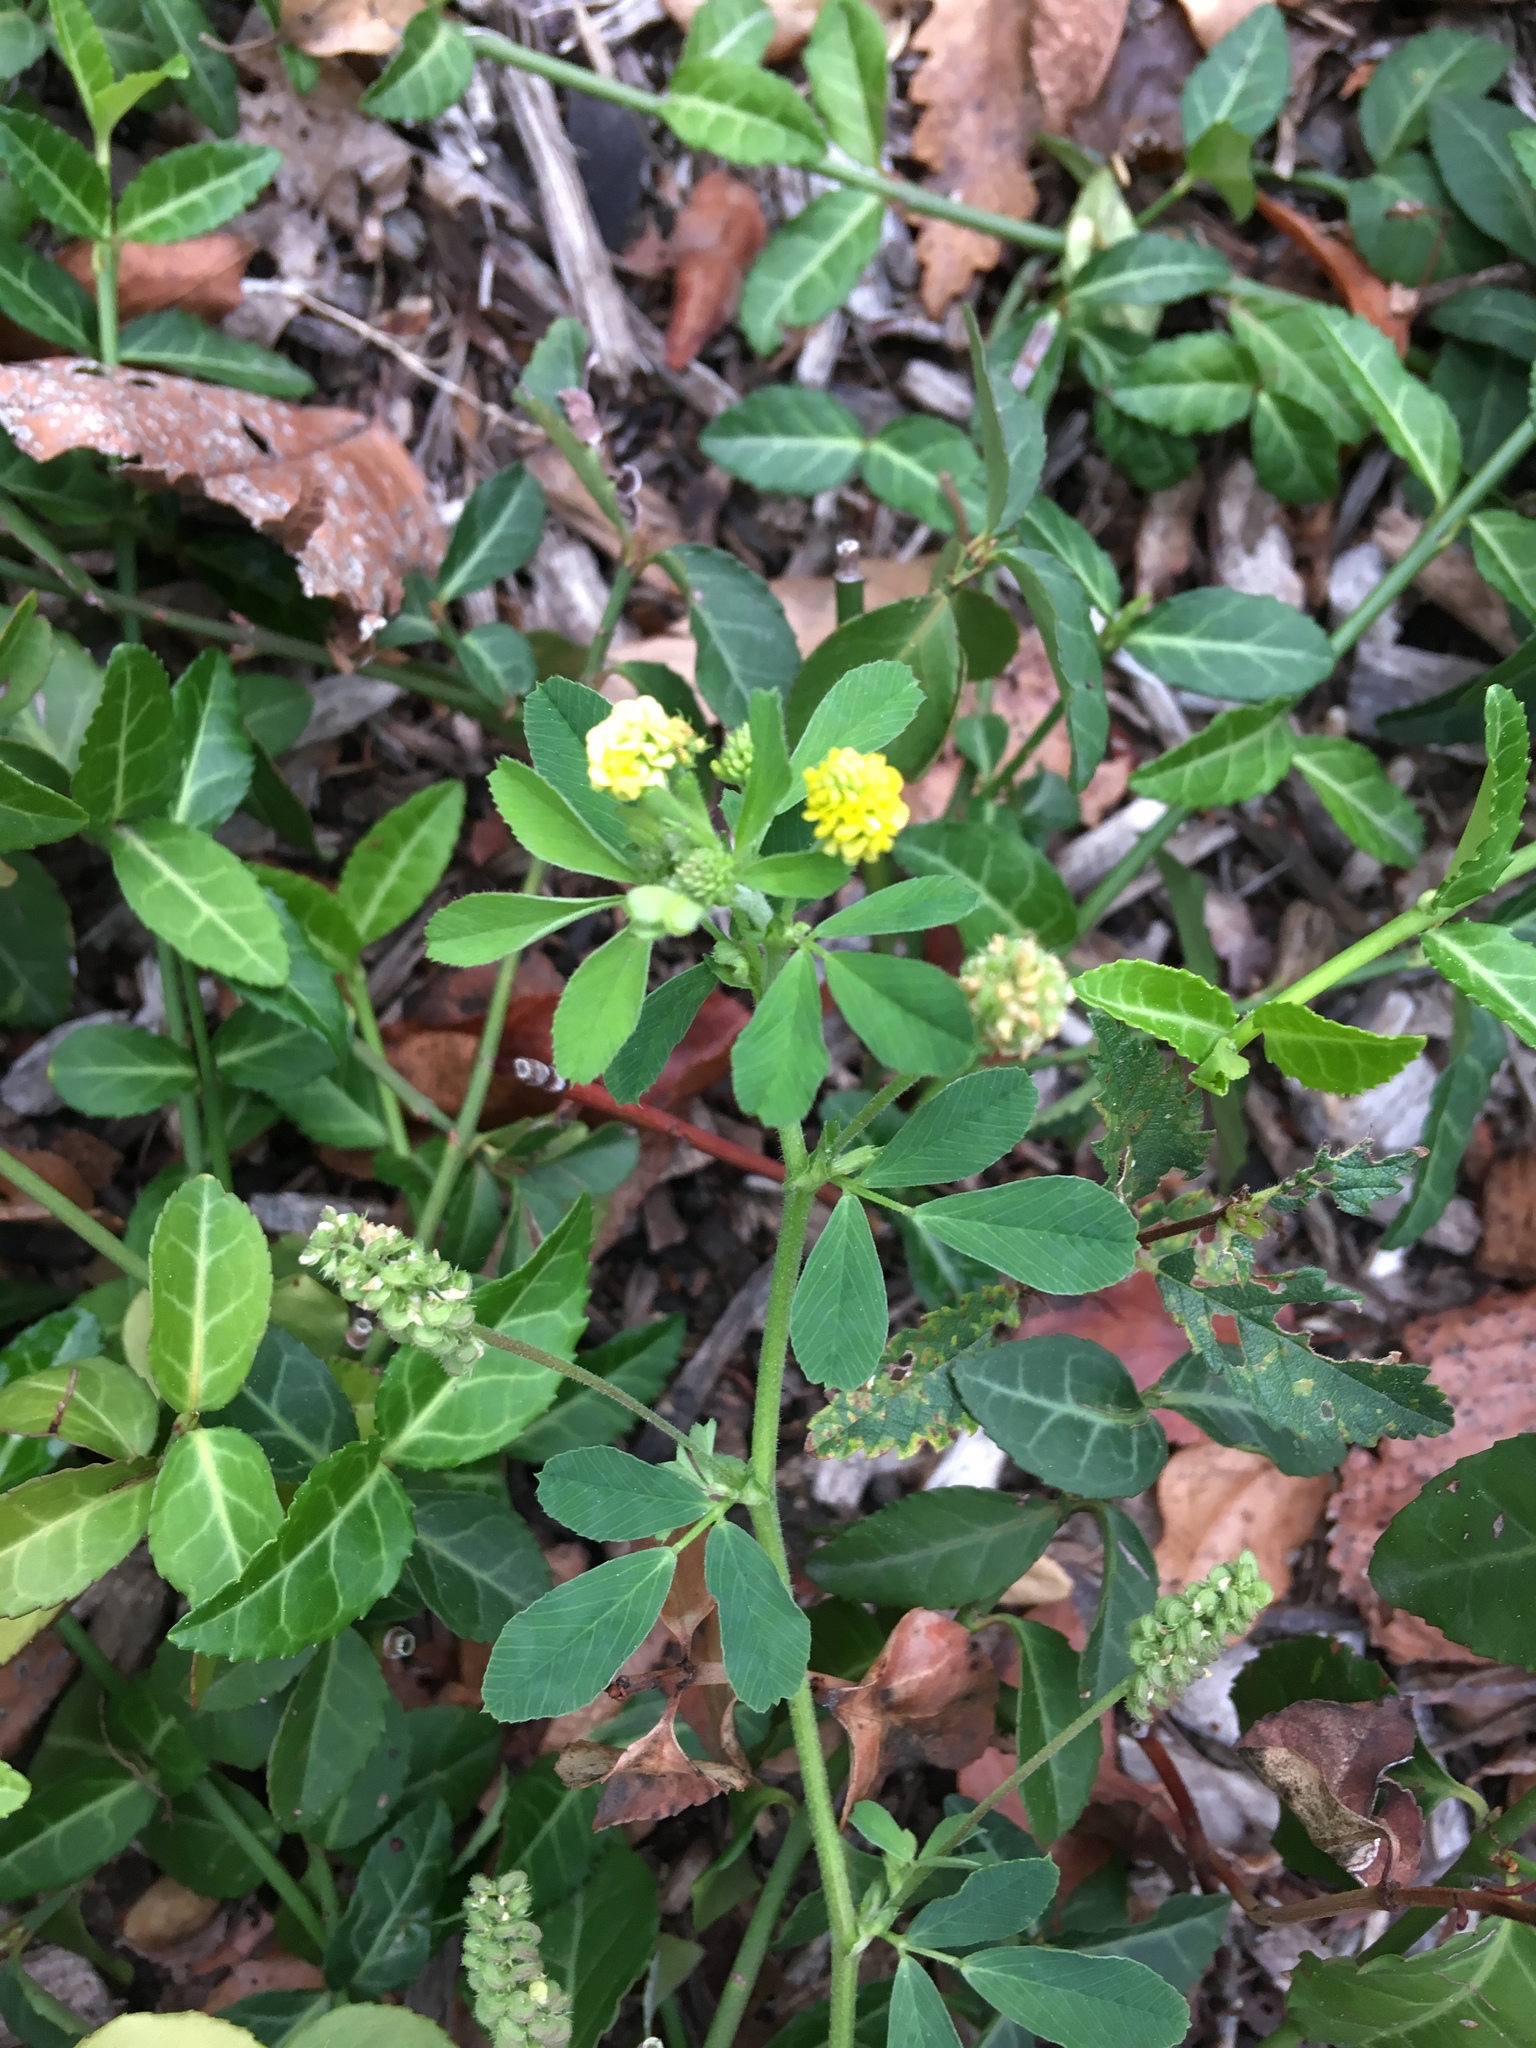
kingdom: Plantae
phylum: Tracheophyta
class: Magnoliopsida
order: Fabales
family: Fabaceae
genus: Medicago
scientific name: Medicago lupulina
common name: Black medick
